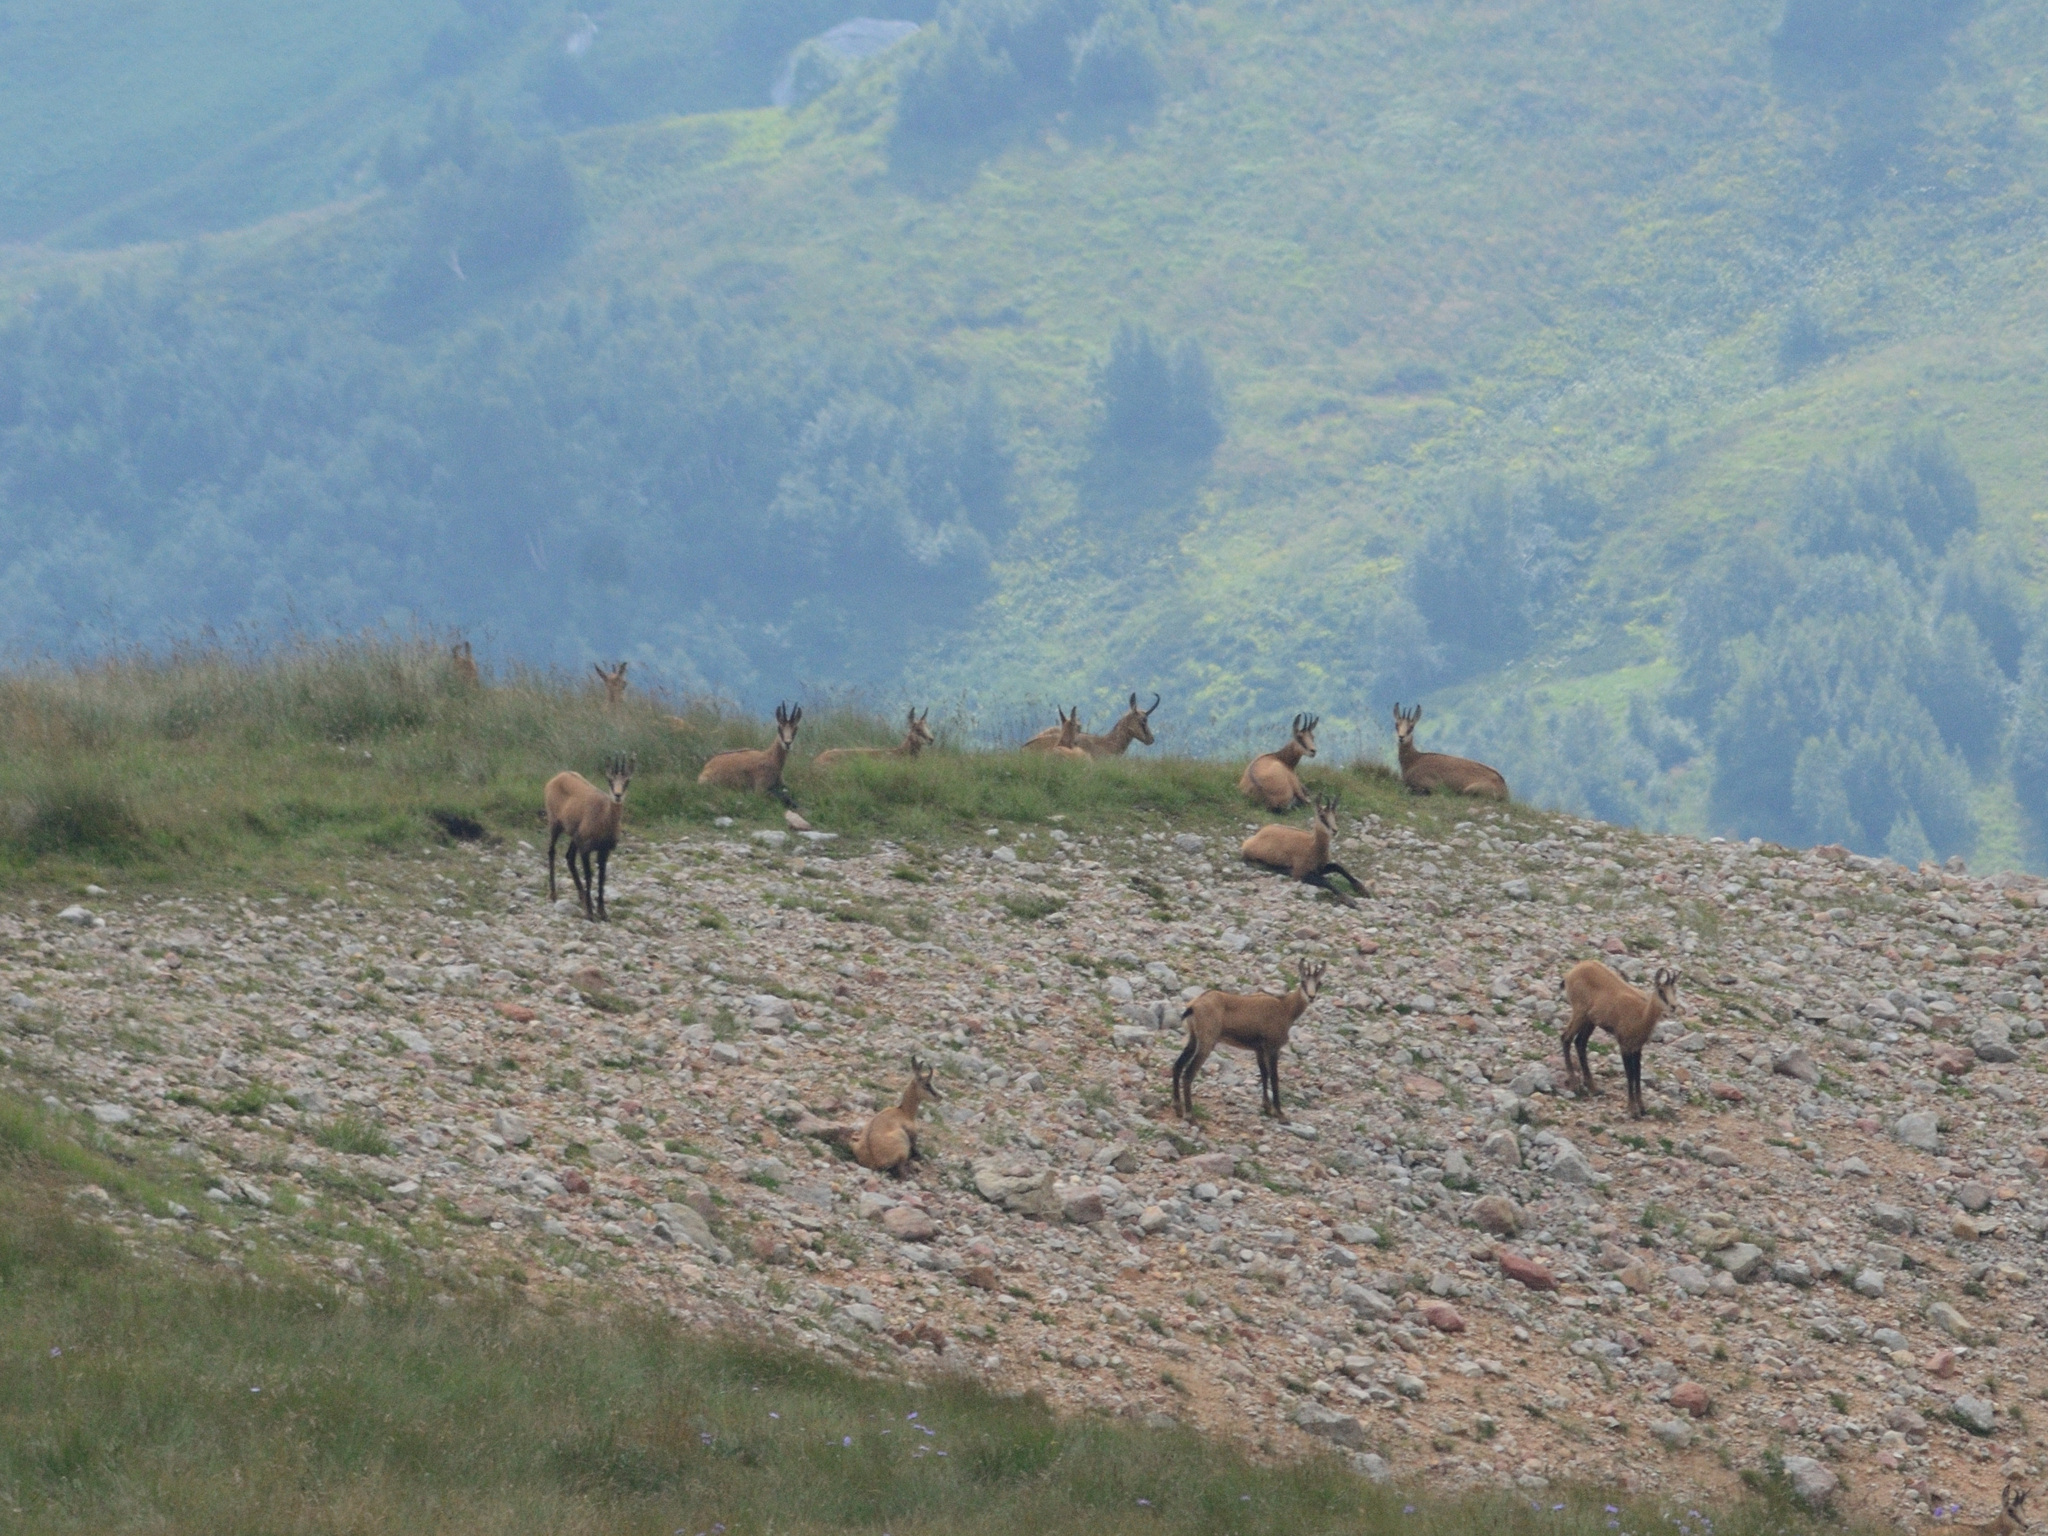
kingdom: Animalia
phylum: Chordata
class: Mammalia
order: Artiodactyla
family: Bovidae
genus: Rupicapra
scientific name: Rupicapra rupicapra
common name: Chamois
